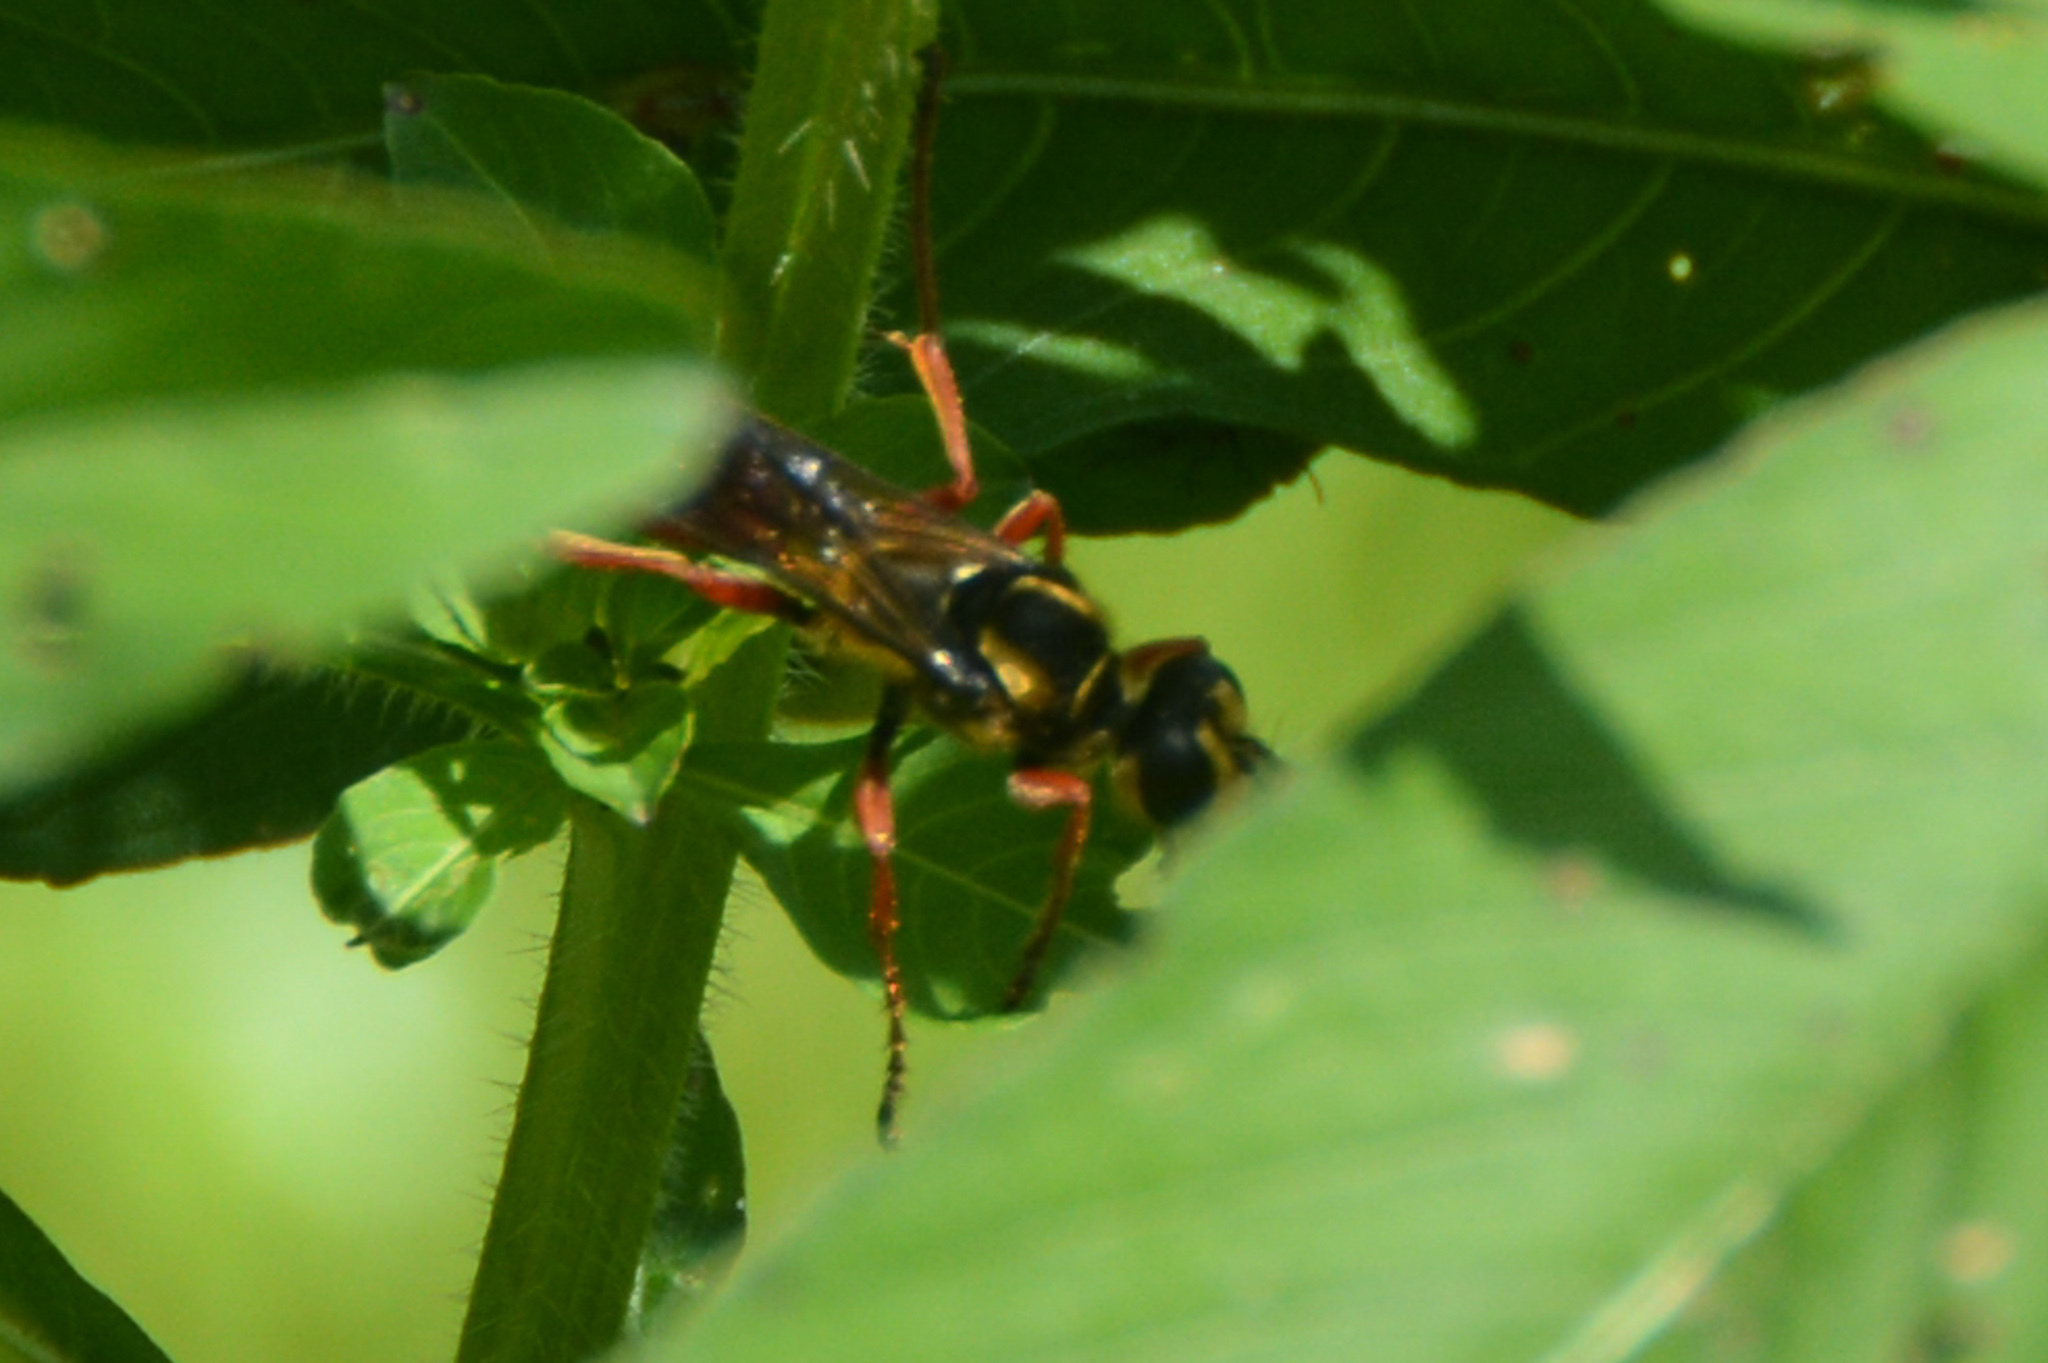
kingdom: Animalia
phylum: Arthropoda
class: Insecta
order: Hymenoptera
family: Sphecidae
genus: Sphex
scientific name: Sphex dorsalis
